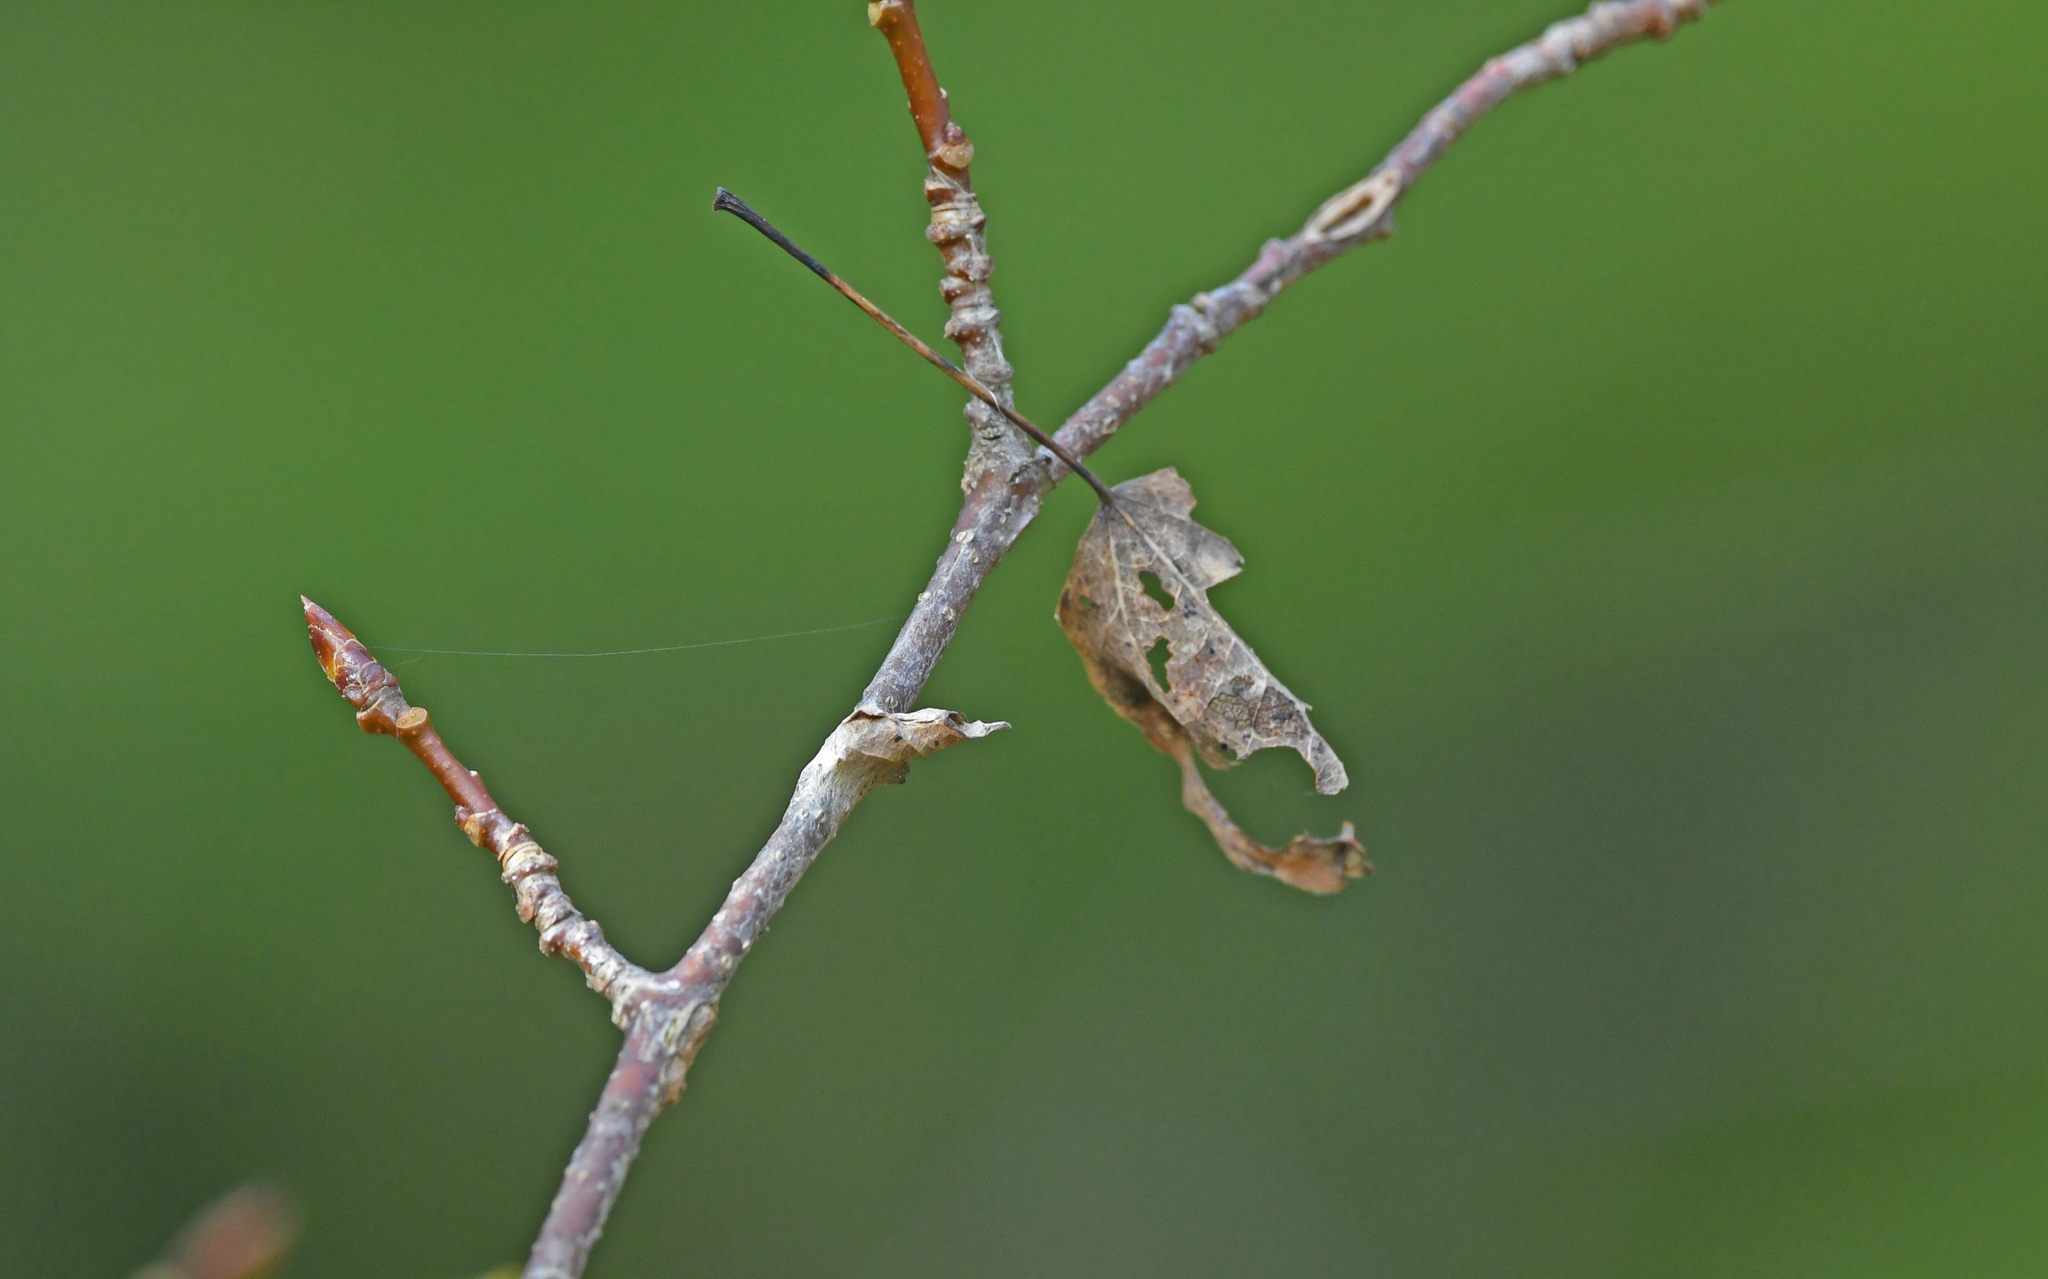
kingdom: Animalia
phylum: Arthropoda
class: Insecta
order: Lepidoptera
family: Nymphalidae
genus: Limenitis
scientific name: Limenitis populi
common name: Poplar admiral
